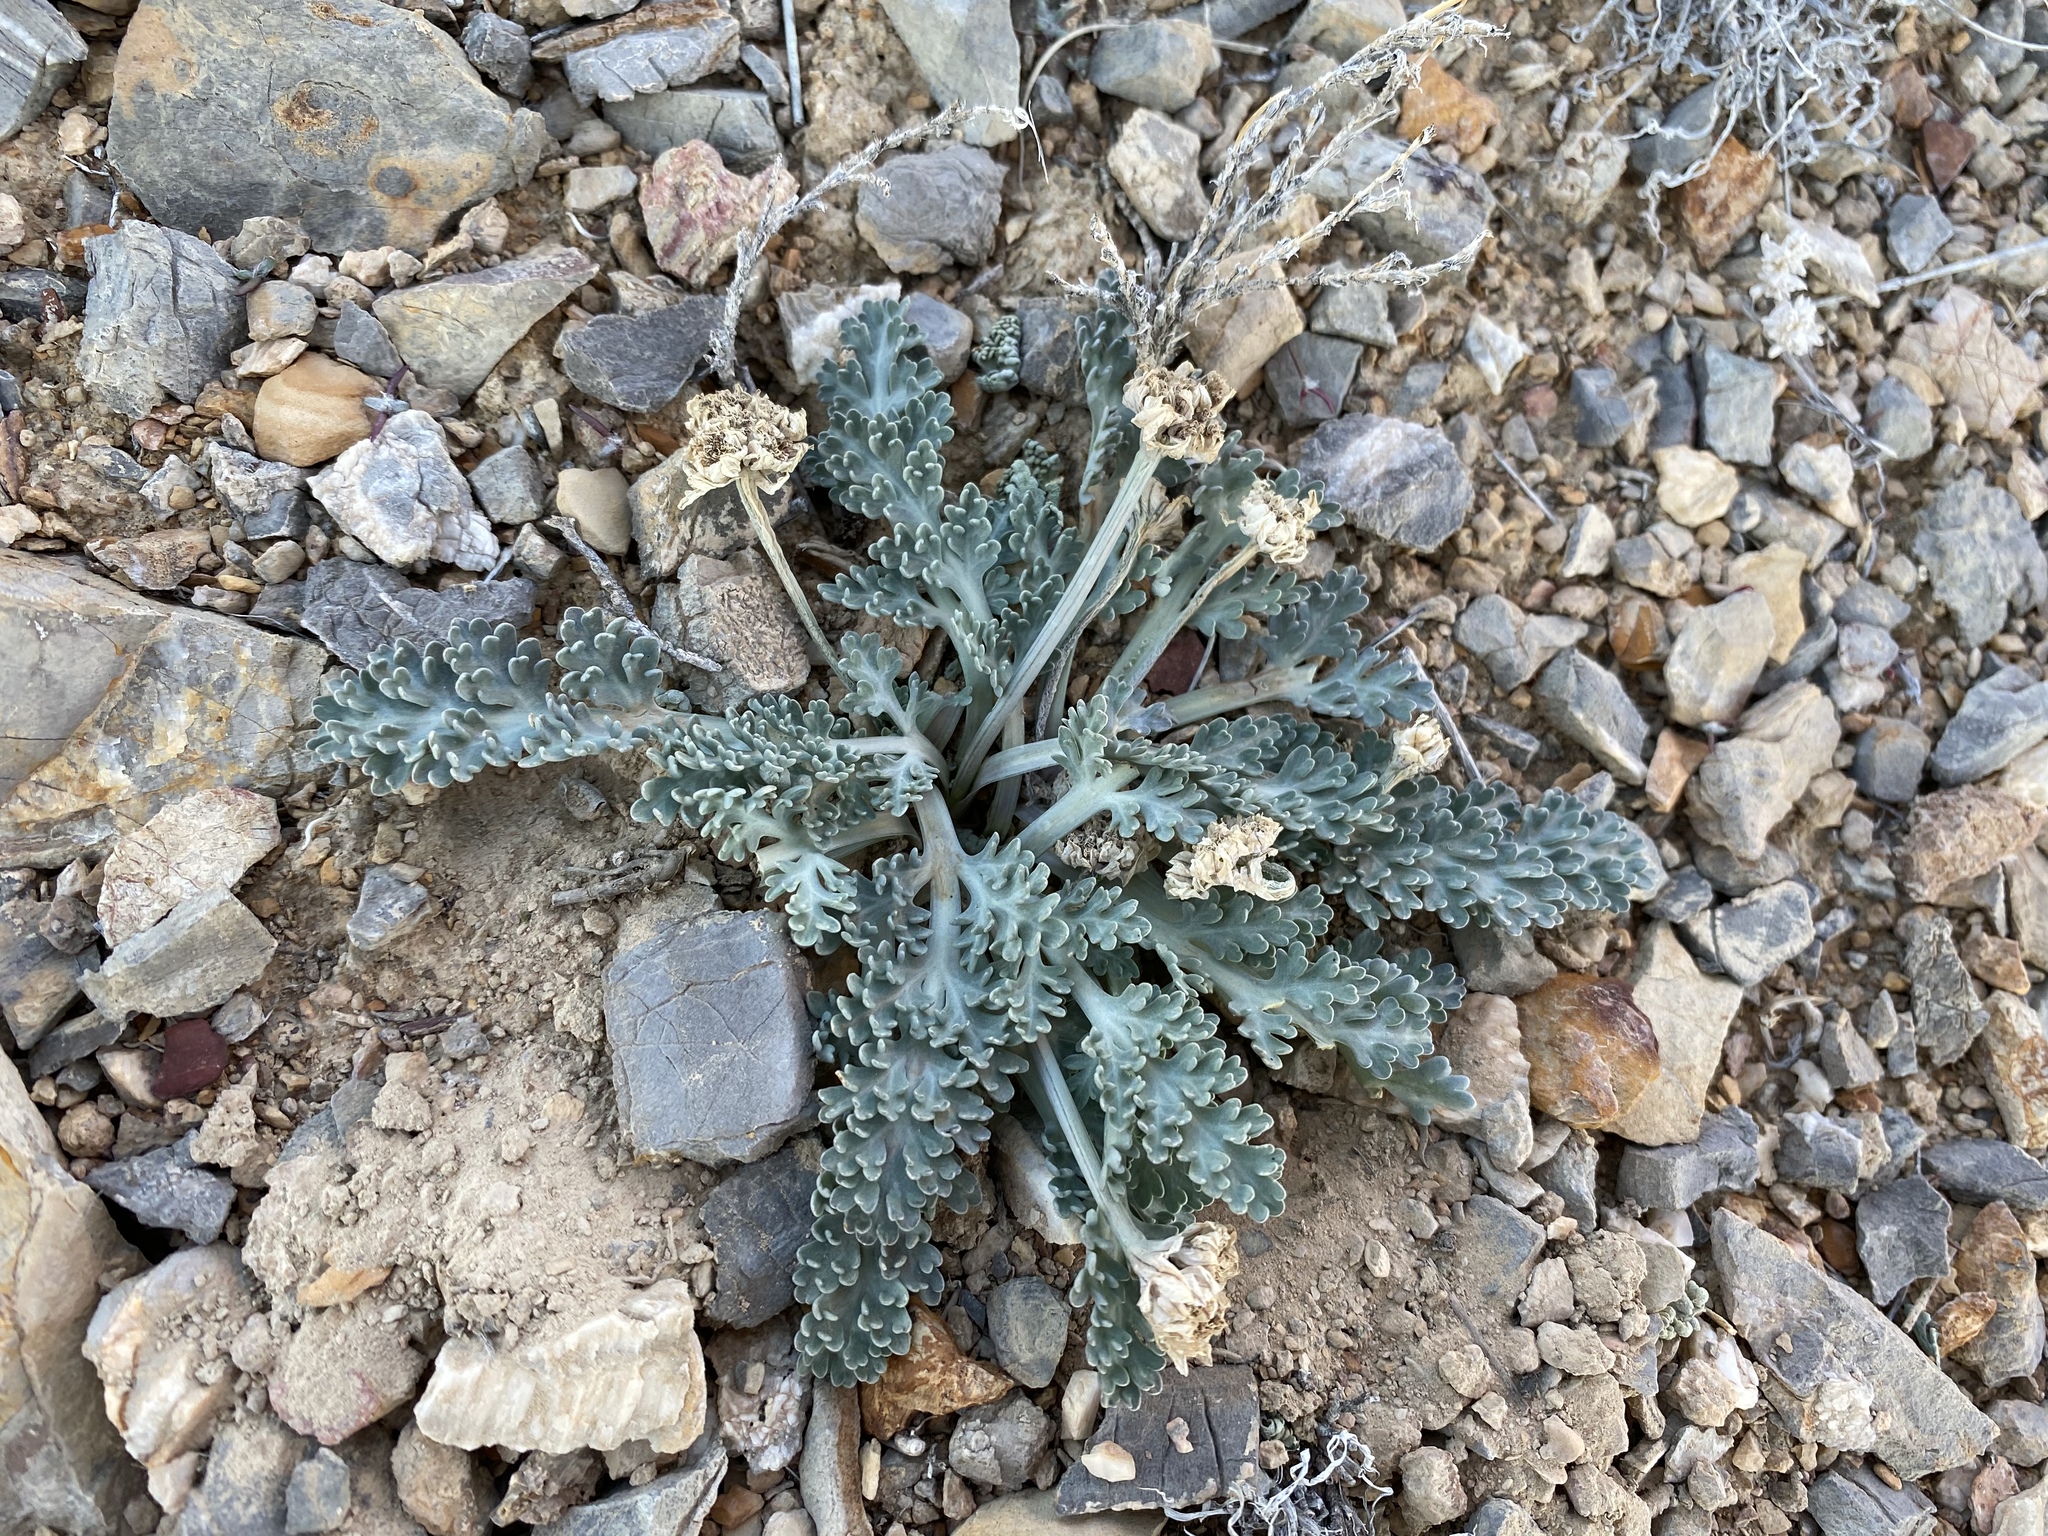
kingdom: Plantae
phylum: Tracheophyta
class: Magnoliopsida
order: Apiales
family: Apiaceae
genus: Vesper
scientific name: Vesper purpurascens
